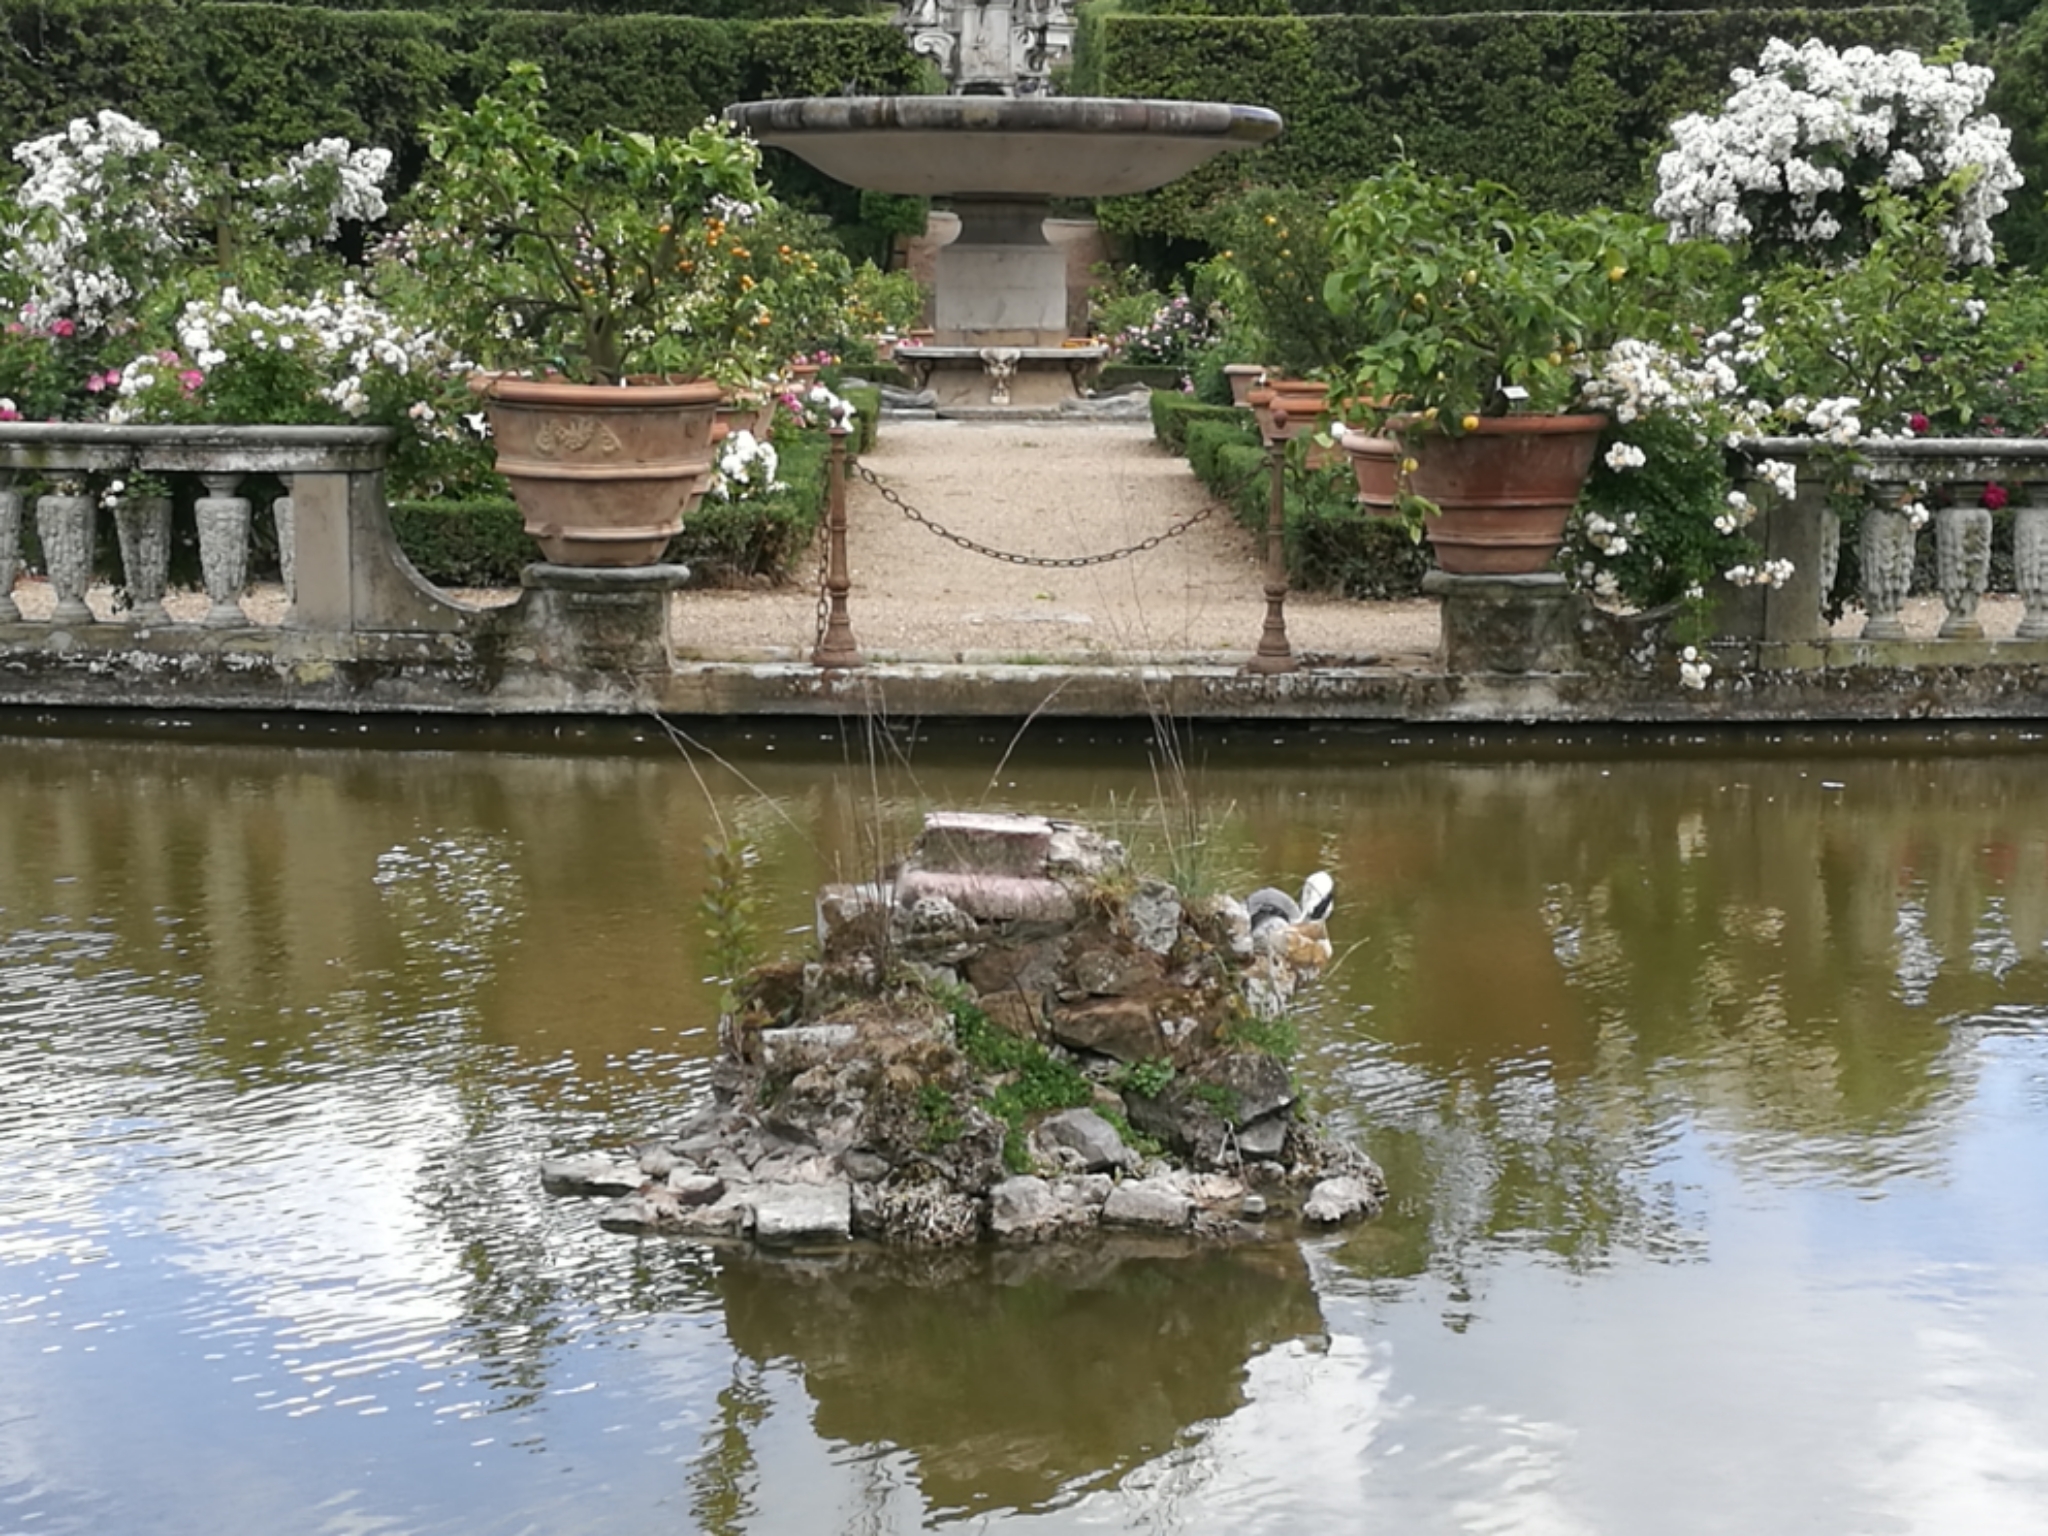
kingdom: Animalia
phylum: Chordata
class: Aves
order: Pelecaniformes
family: Ardeidae
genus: Ardea
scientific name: Ardea cinerea
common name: Grey heron
